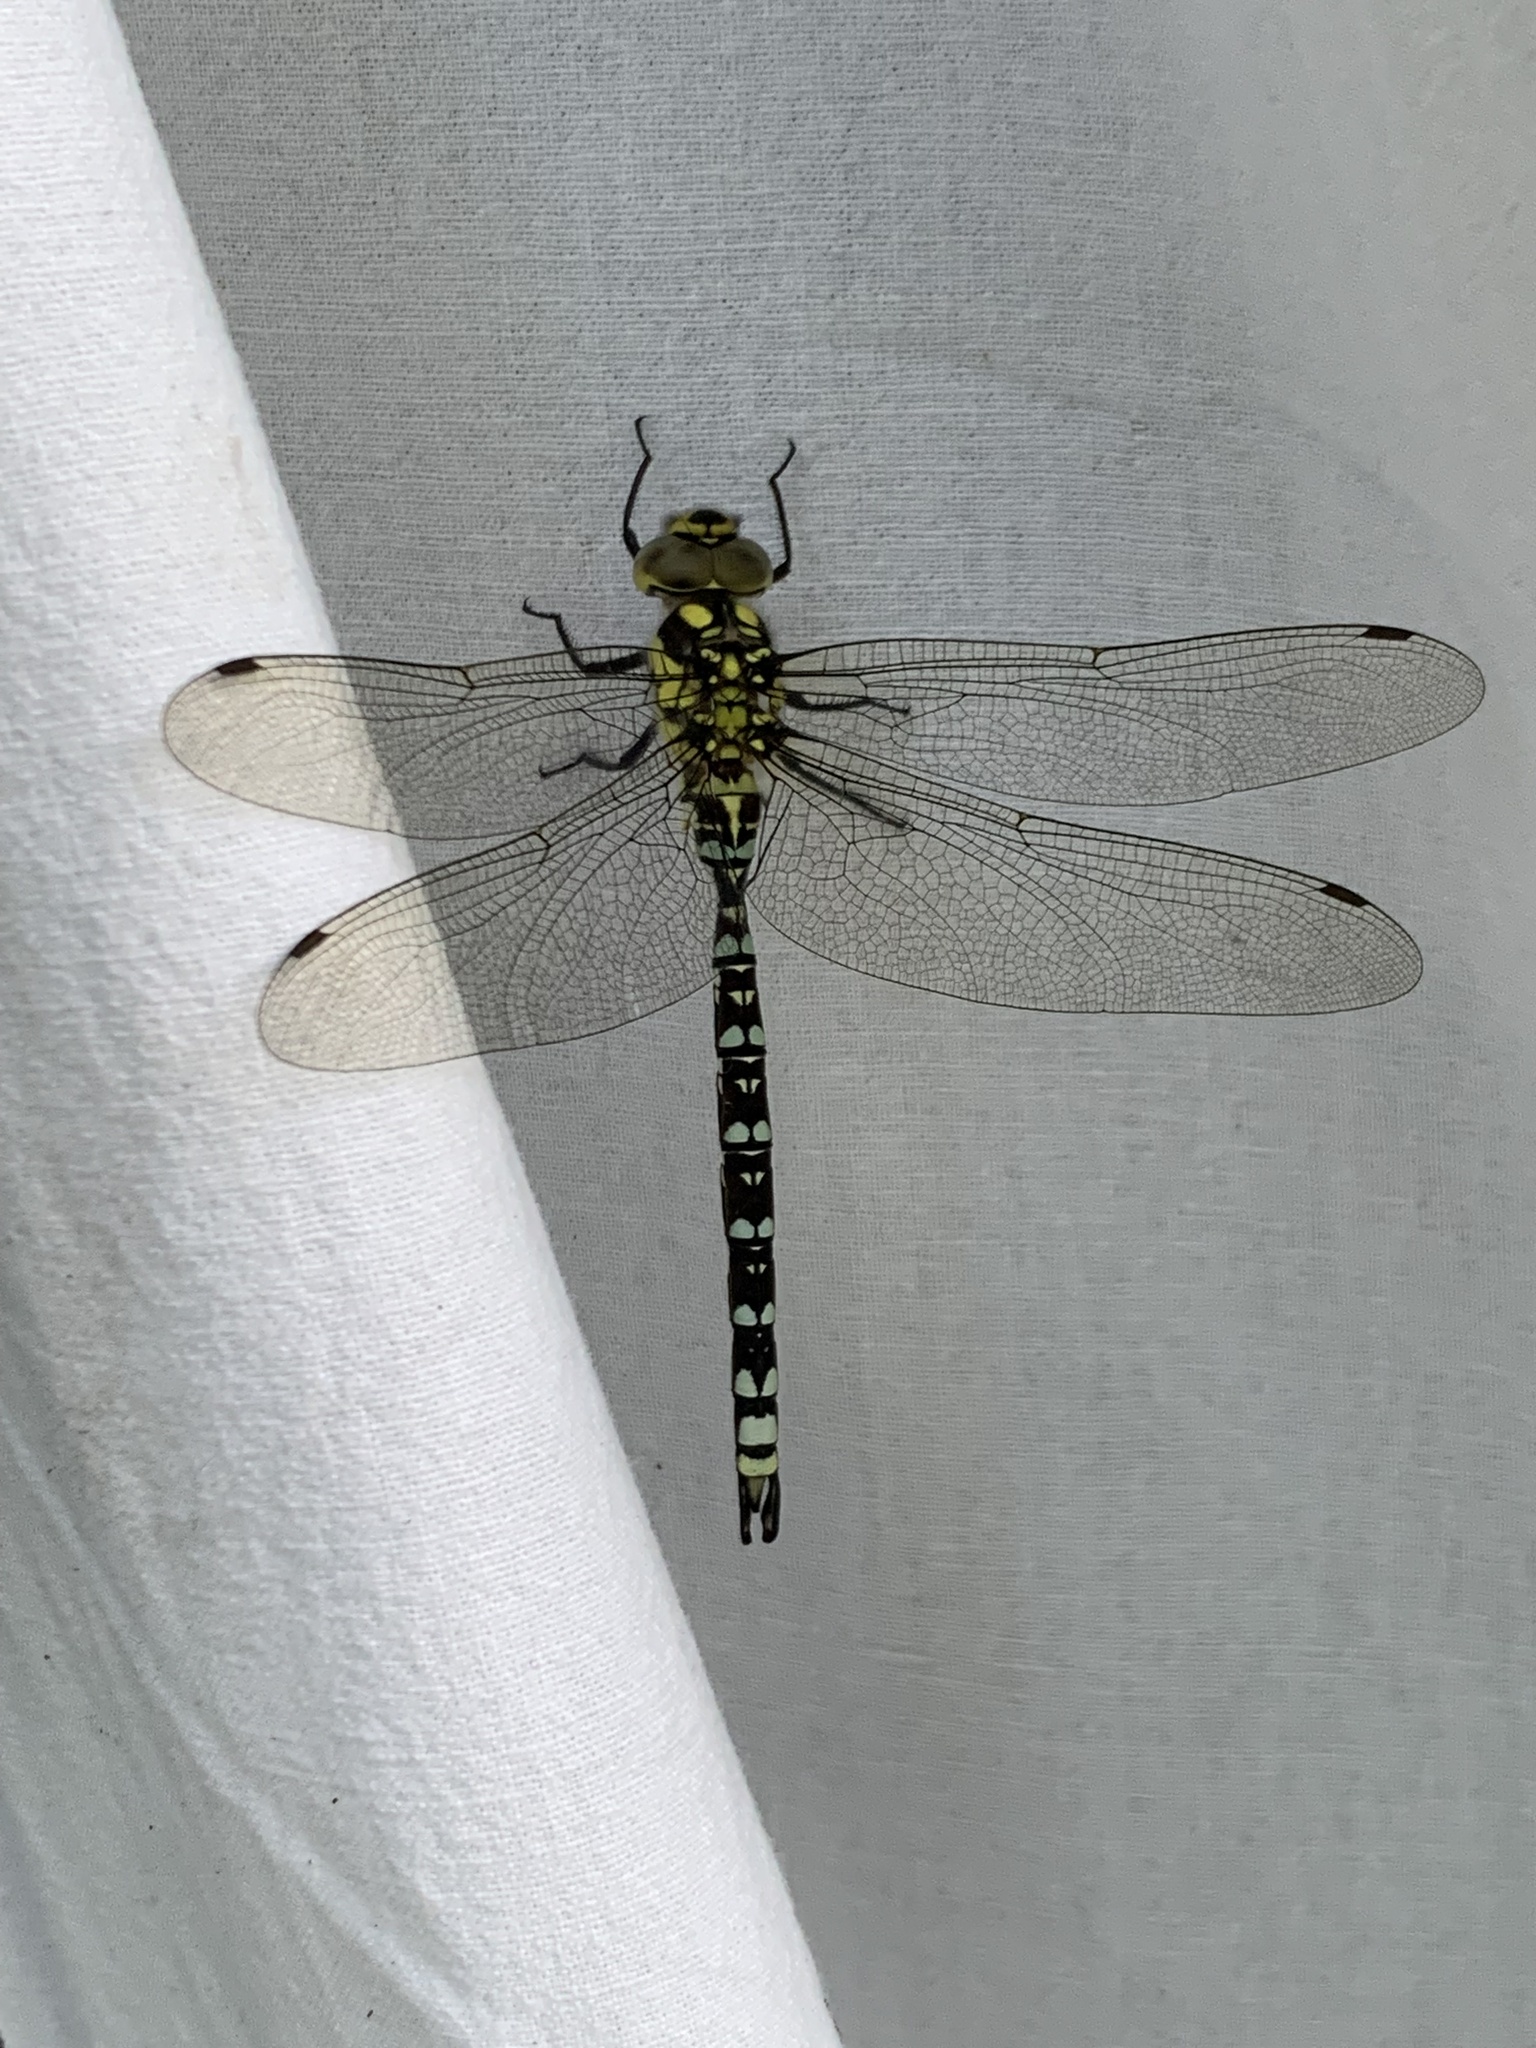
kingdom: Animalia
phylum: Arthropoda
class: Insecta
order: Odonata
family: Aeshnidae
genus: Aeshna
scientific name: Aeshna cyanea
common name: Southern hawker
